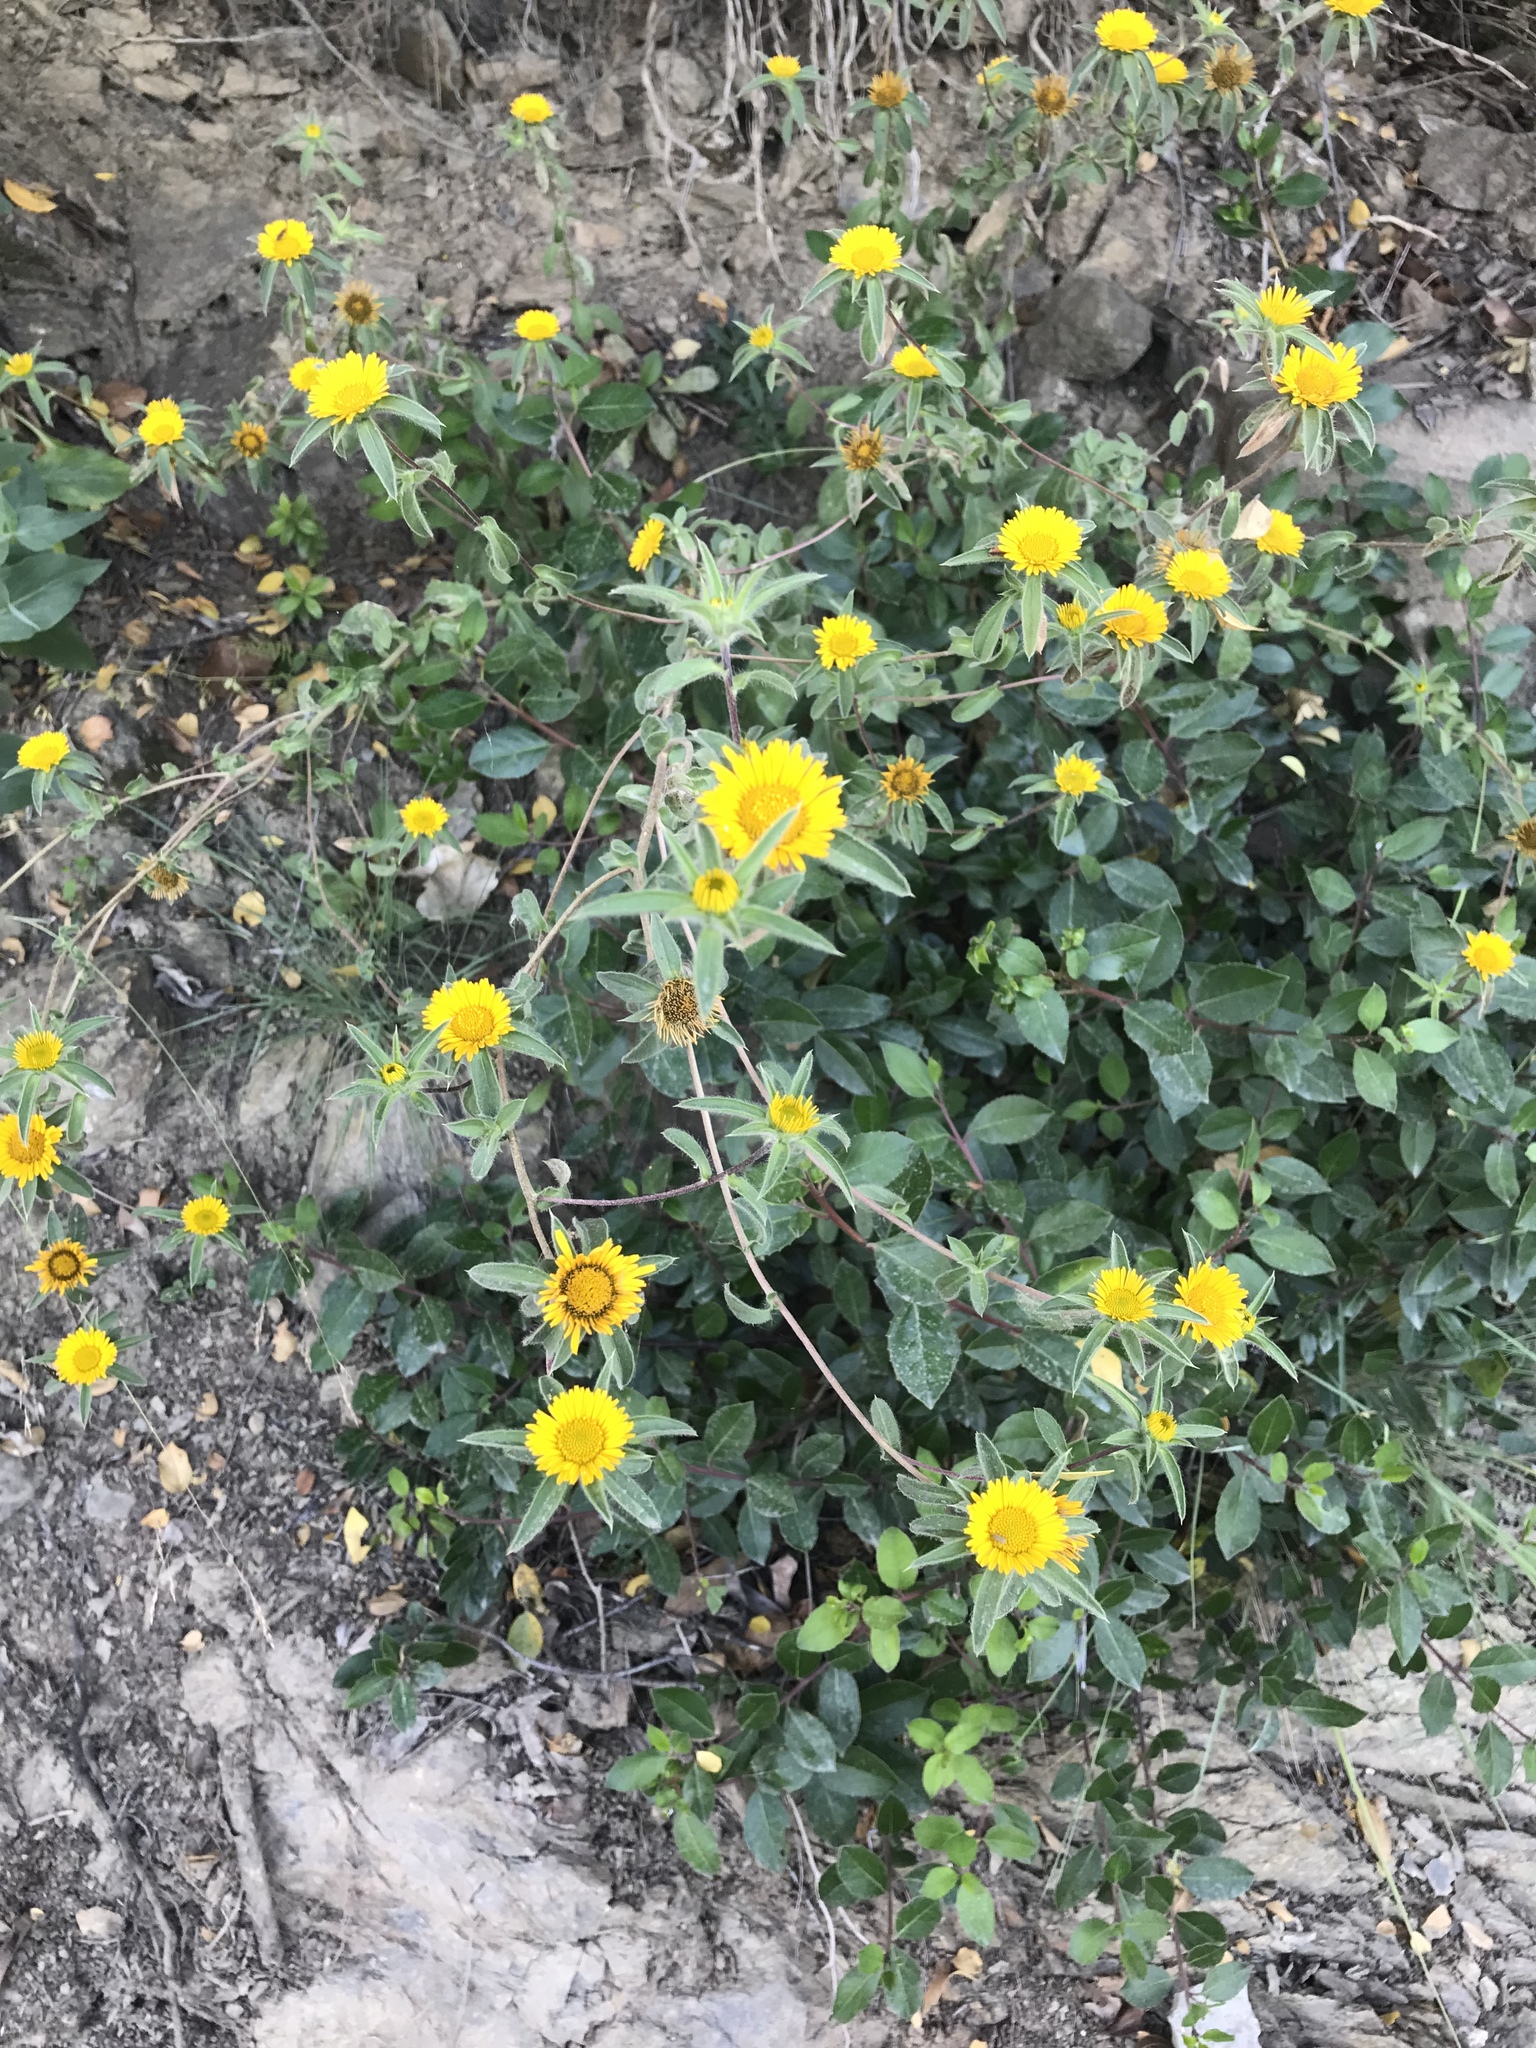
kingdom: Plantae
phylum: Tracheophyta
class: Magnoliopsida
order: Asterales
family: Asteraceae
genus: Pallenis
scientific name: Pallenis spinosa
